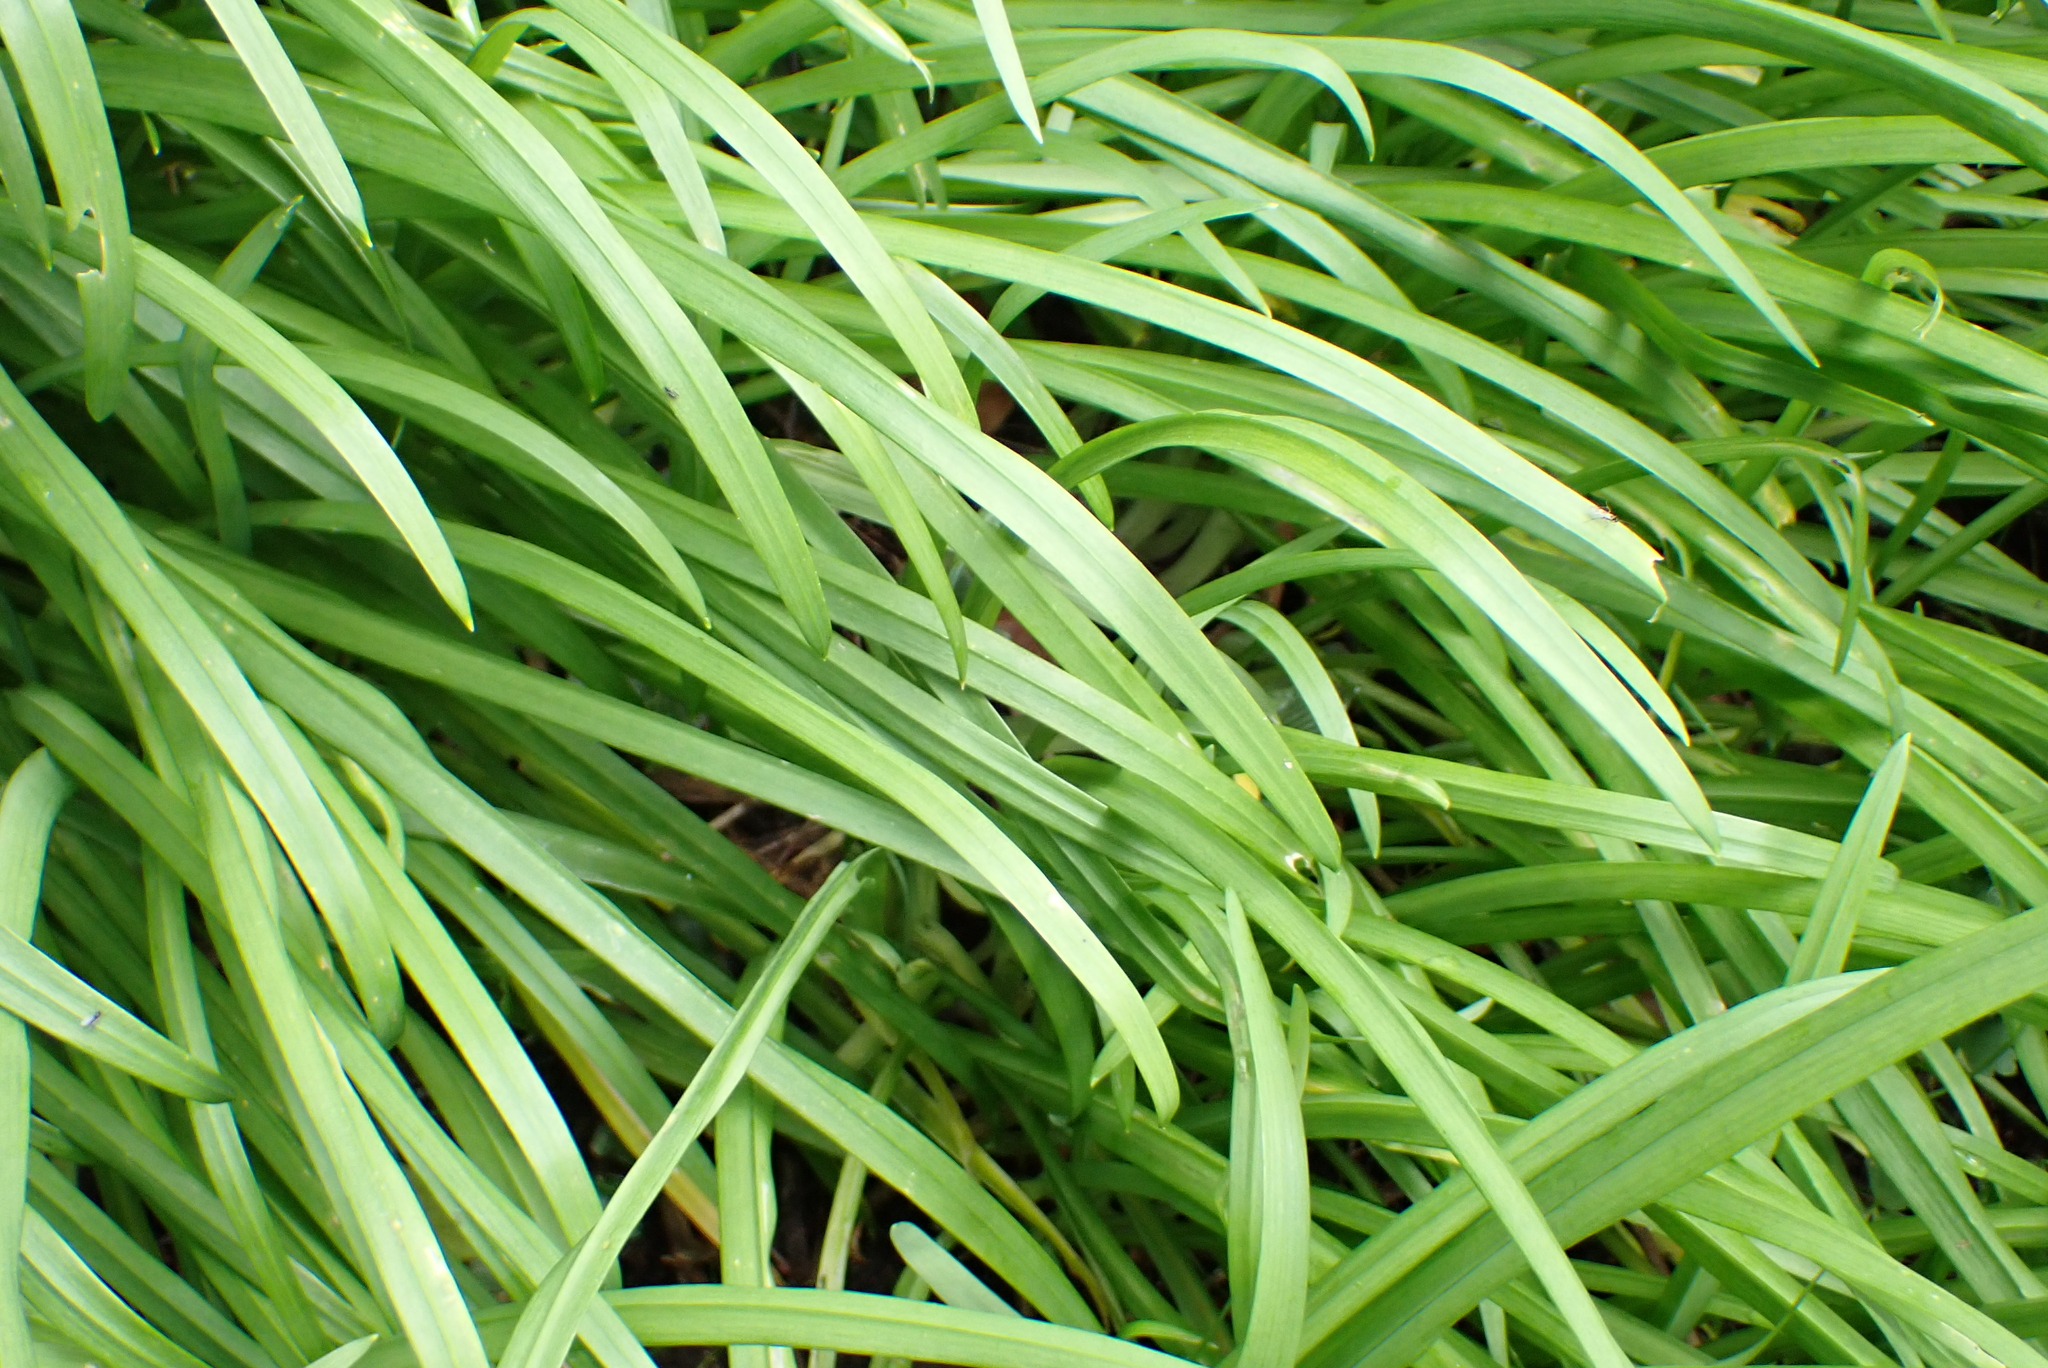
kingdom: Plantae
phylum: Tracheophyta
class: Liliopsida
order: Asparagales
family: Amaryllidaceae
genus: Allium
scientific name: Allium triquetrum
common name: Three-cornered garlic
